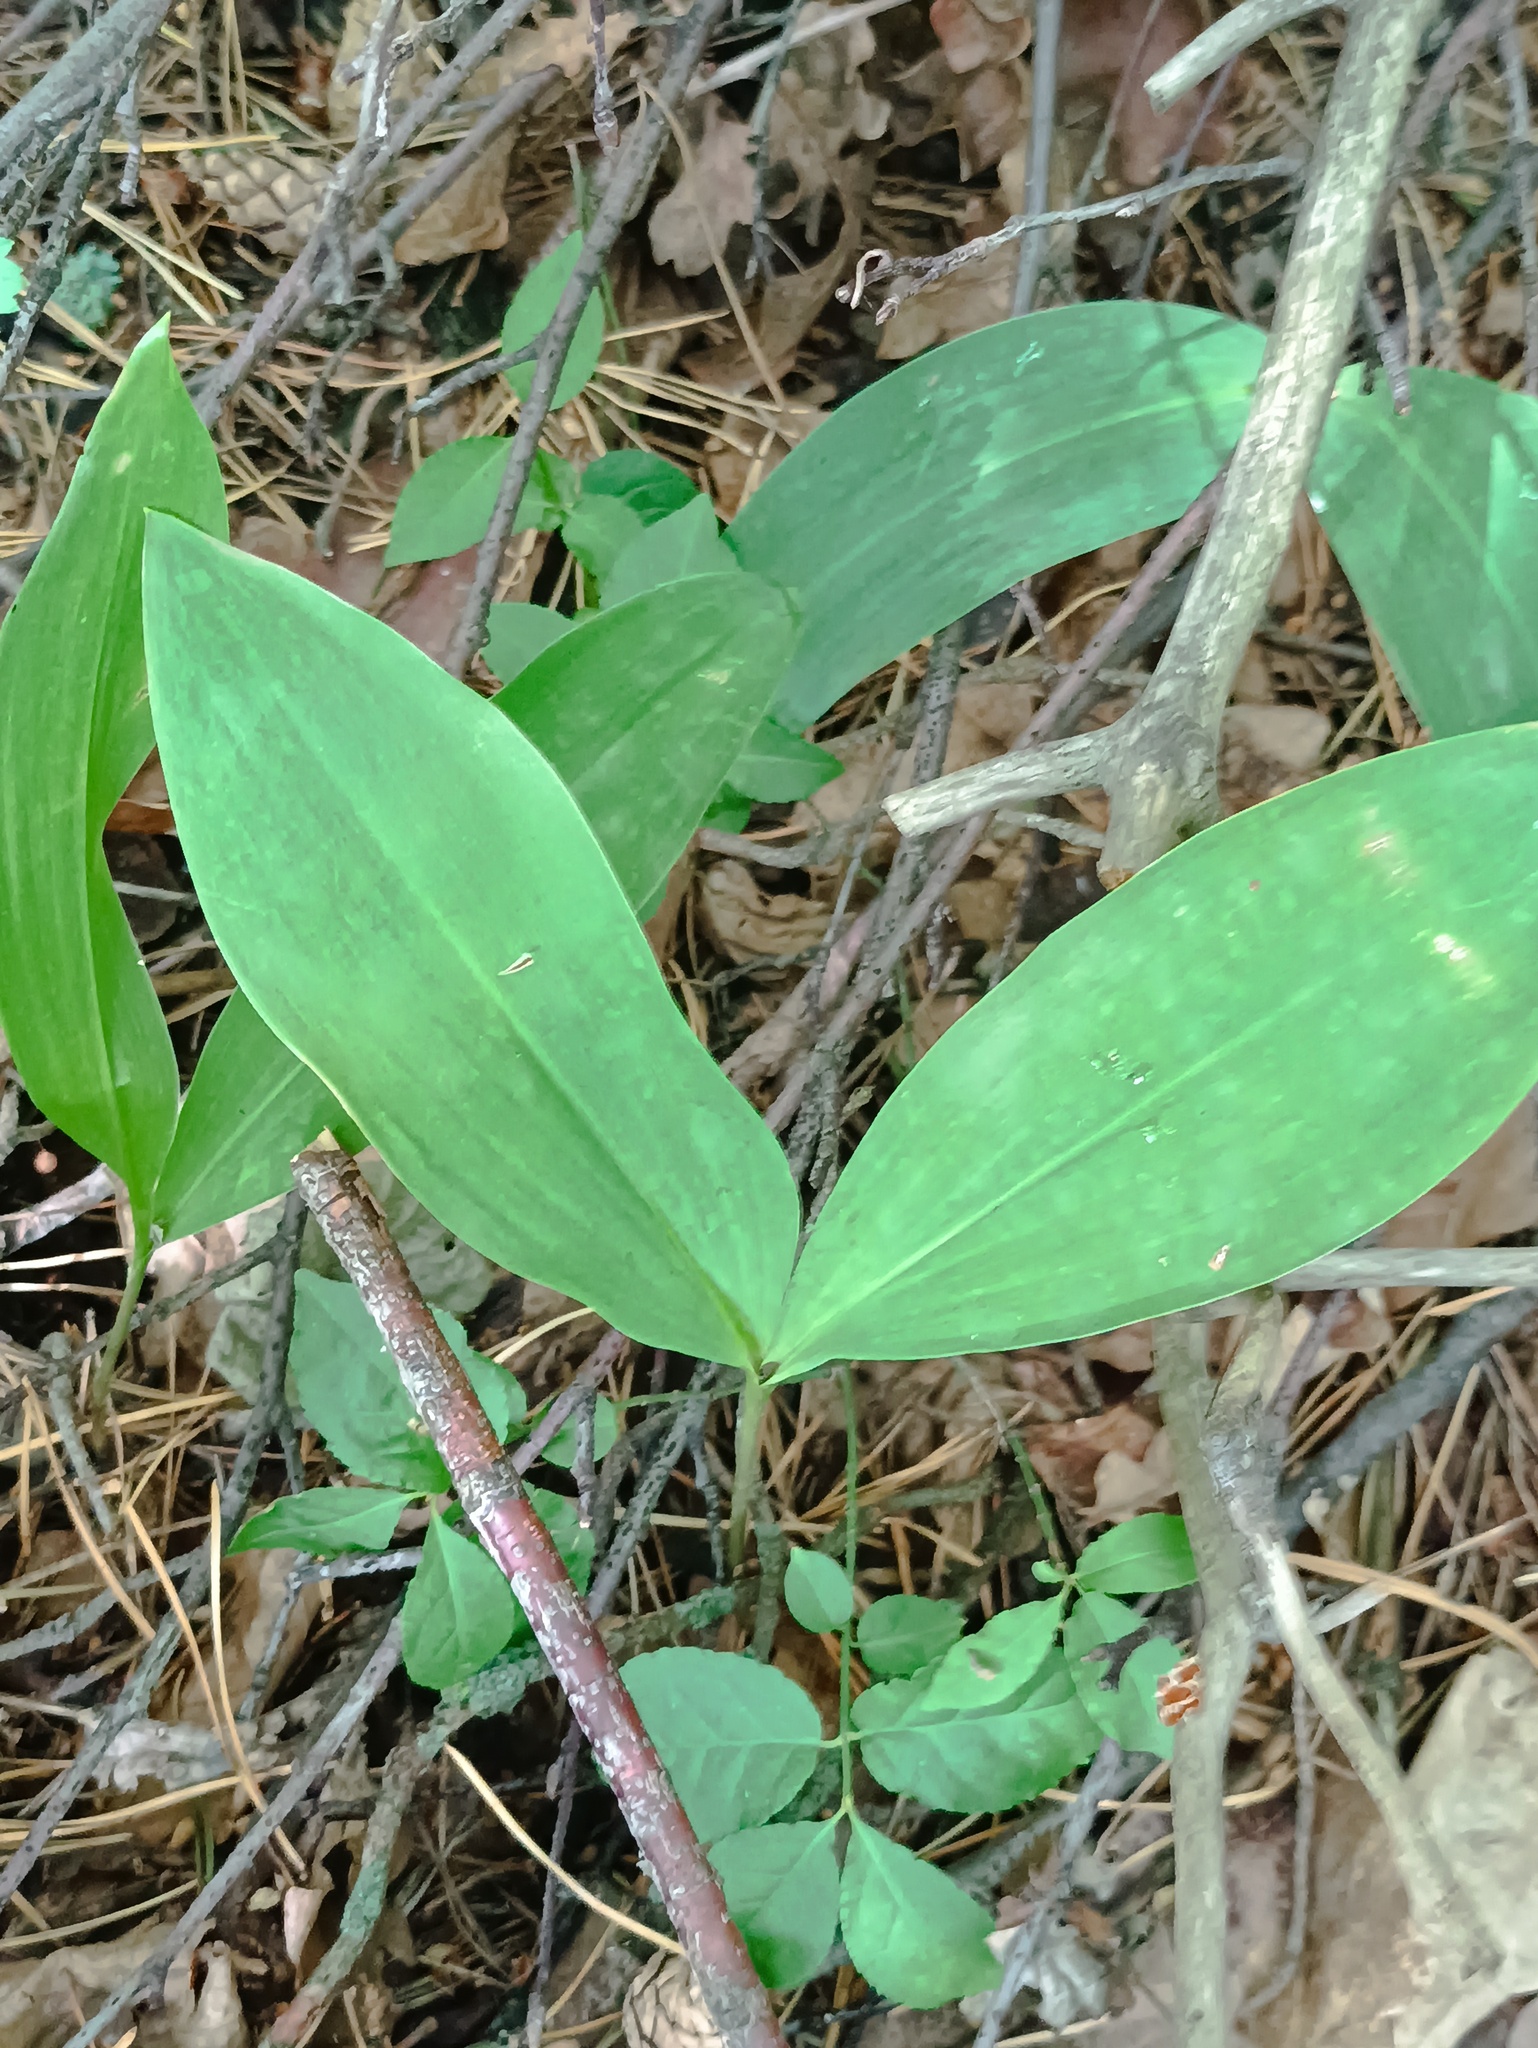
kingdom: Plantae
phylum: Tracheophyta
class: Liliopsida
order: Asparagales
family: Asparagaceae
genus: Convallaria
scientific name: Convallaria majalis
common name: Lily-of-the-valley
